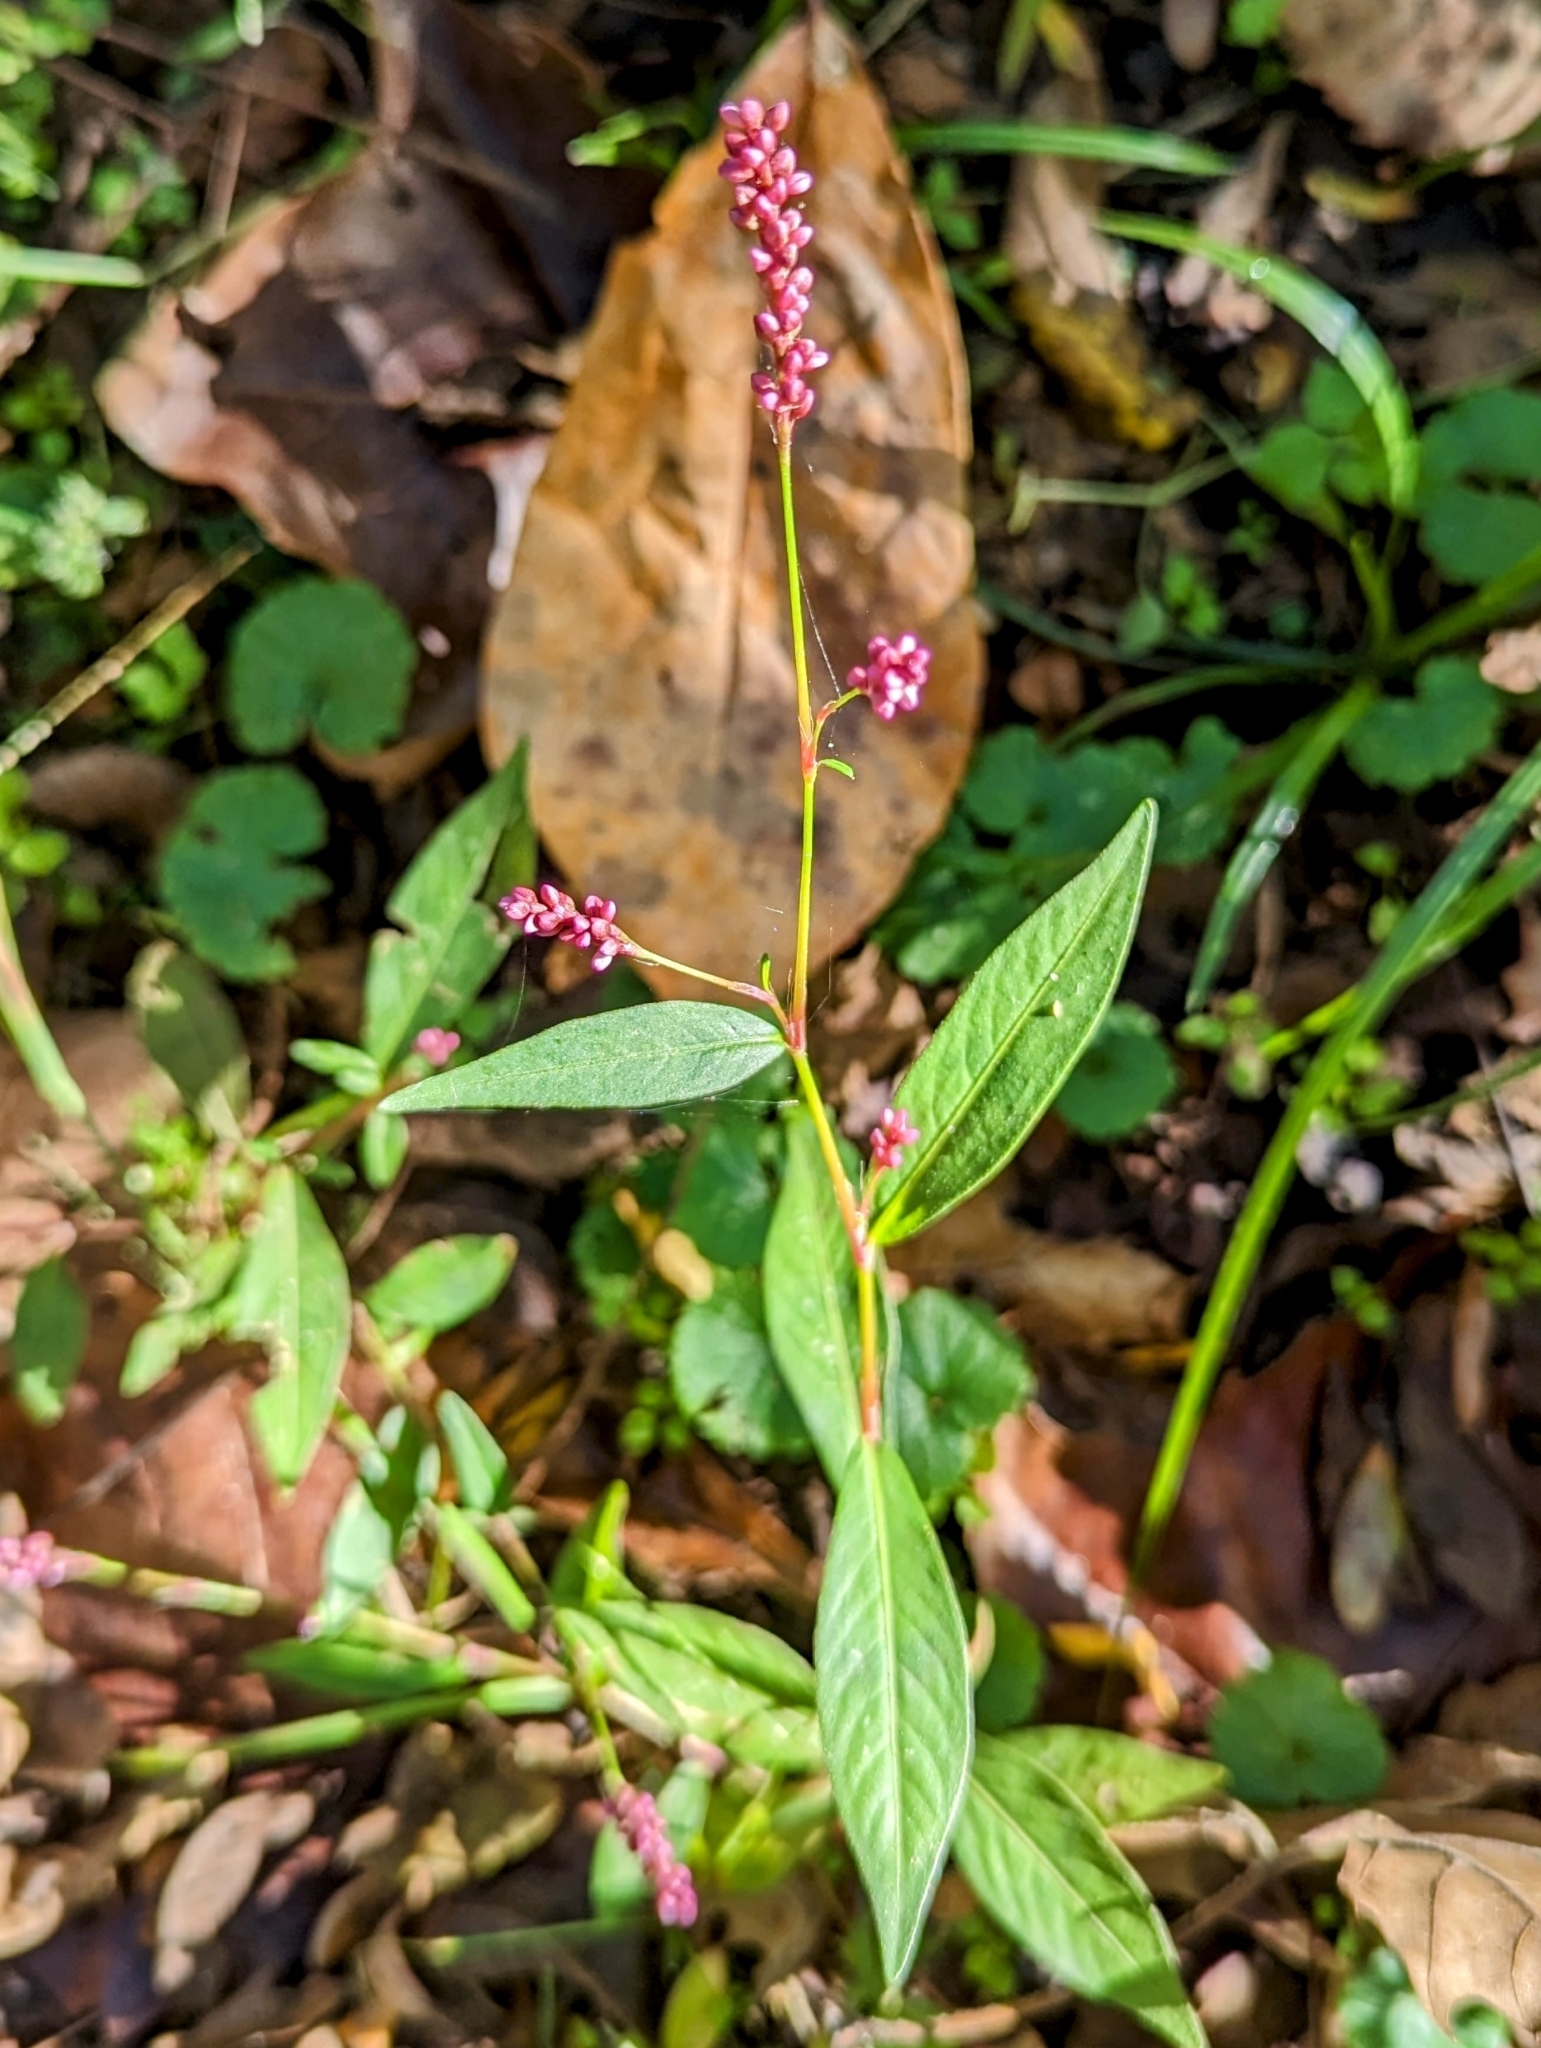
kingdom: Plantae
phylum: Tracheophyta
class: Magnoliopsida
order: Caryophyllales
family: Polygonaceae
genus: Persicaria
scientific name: Persicaria longiseta
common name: Bristly lady's-thumb
